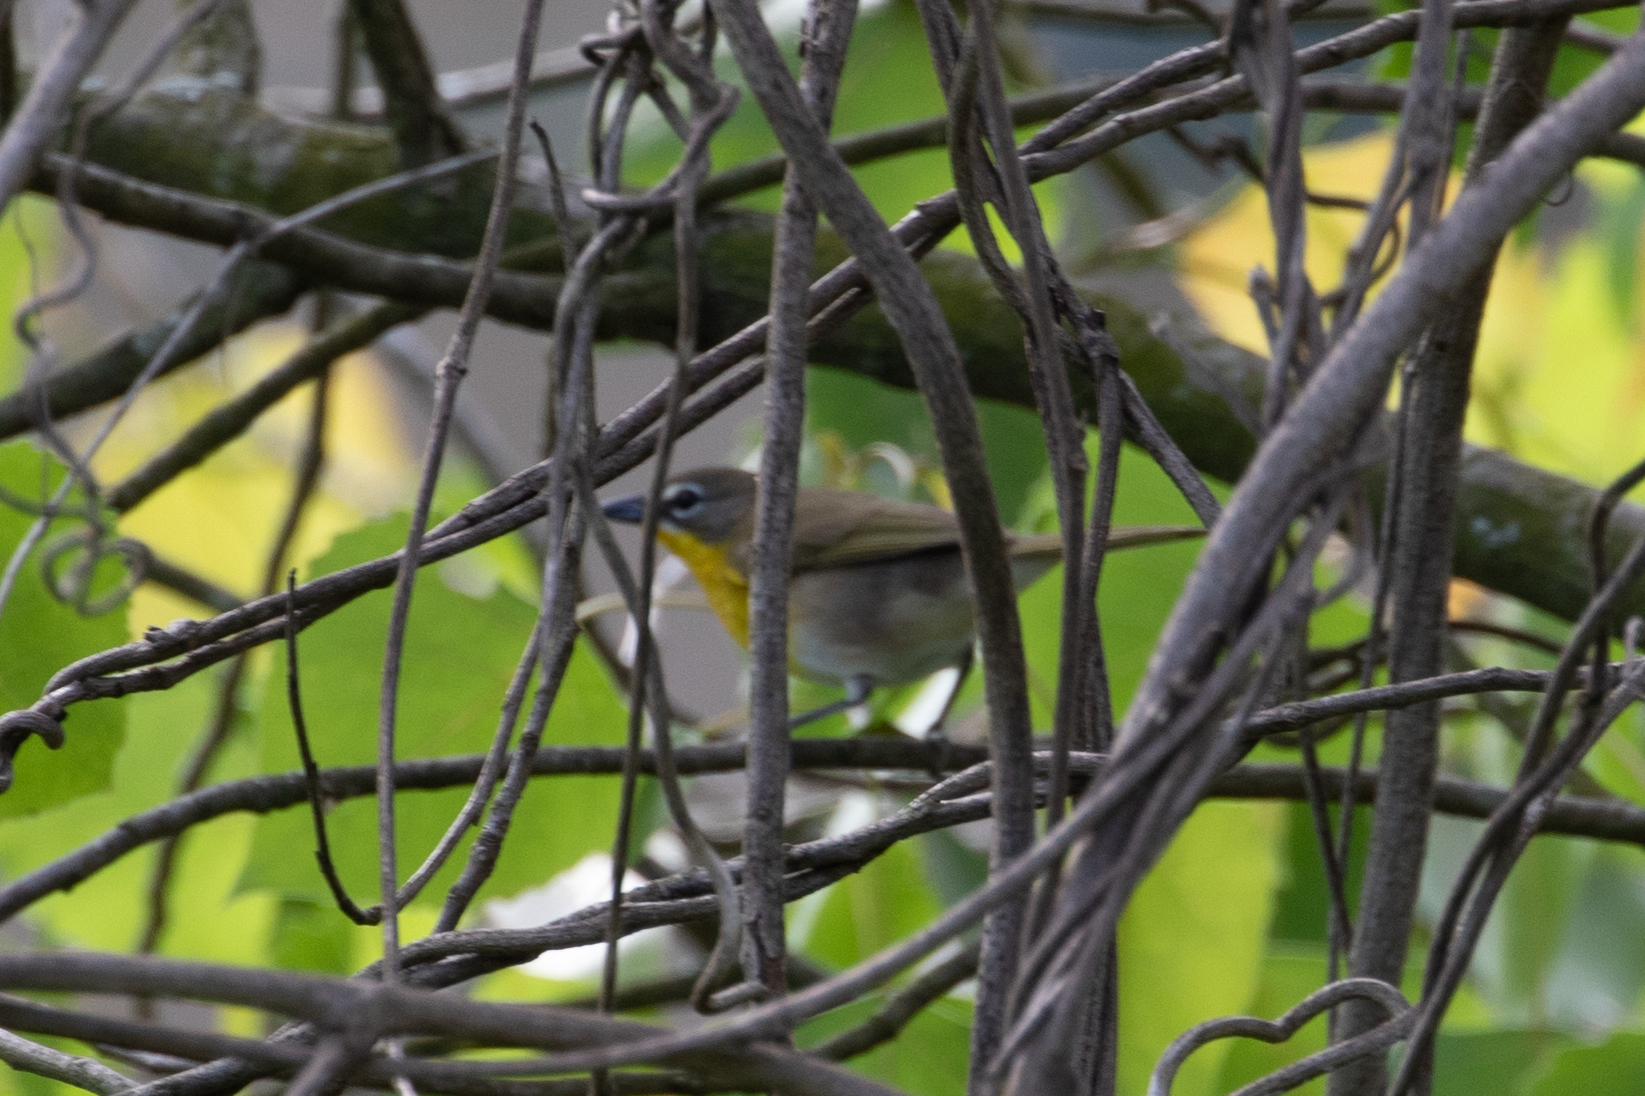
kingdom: Animalia
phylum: Chordata
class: Aves
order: Passeriformes
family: Parulidae
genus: Icteria
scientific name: Icteria virens
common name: Yellow-breasted chat
